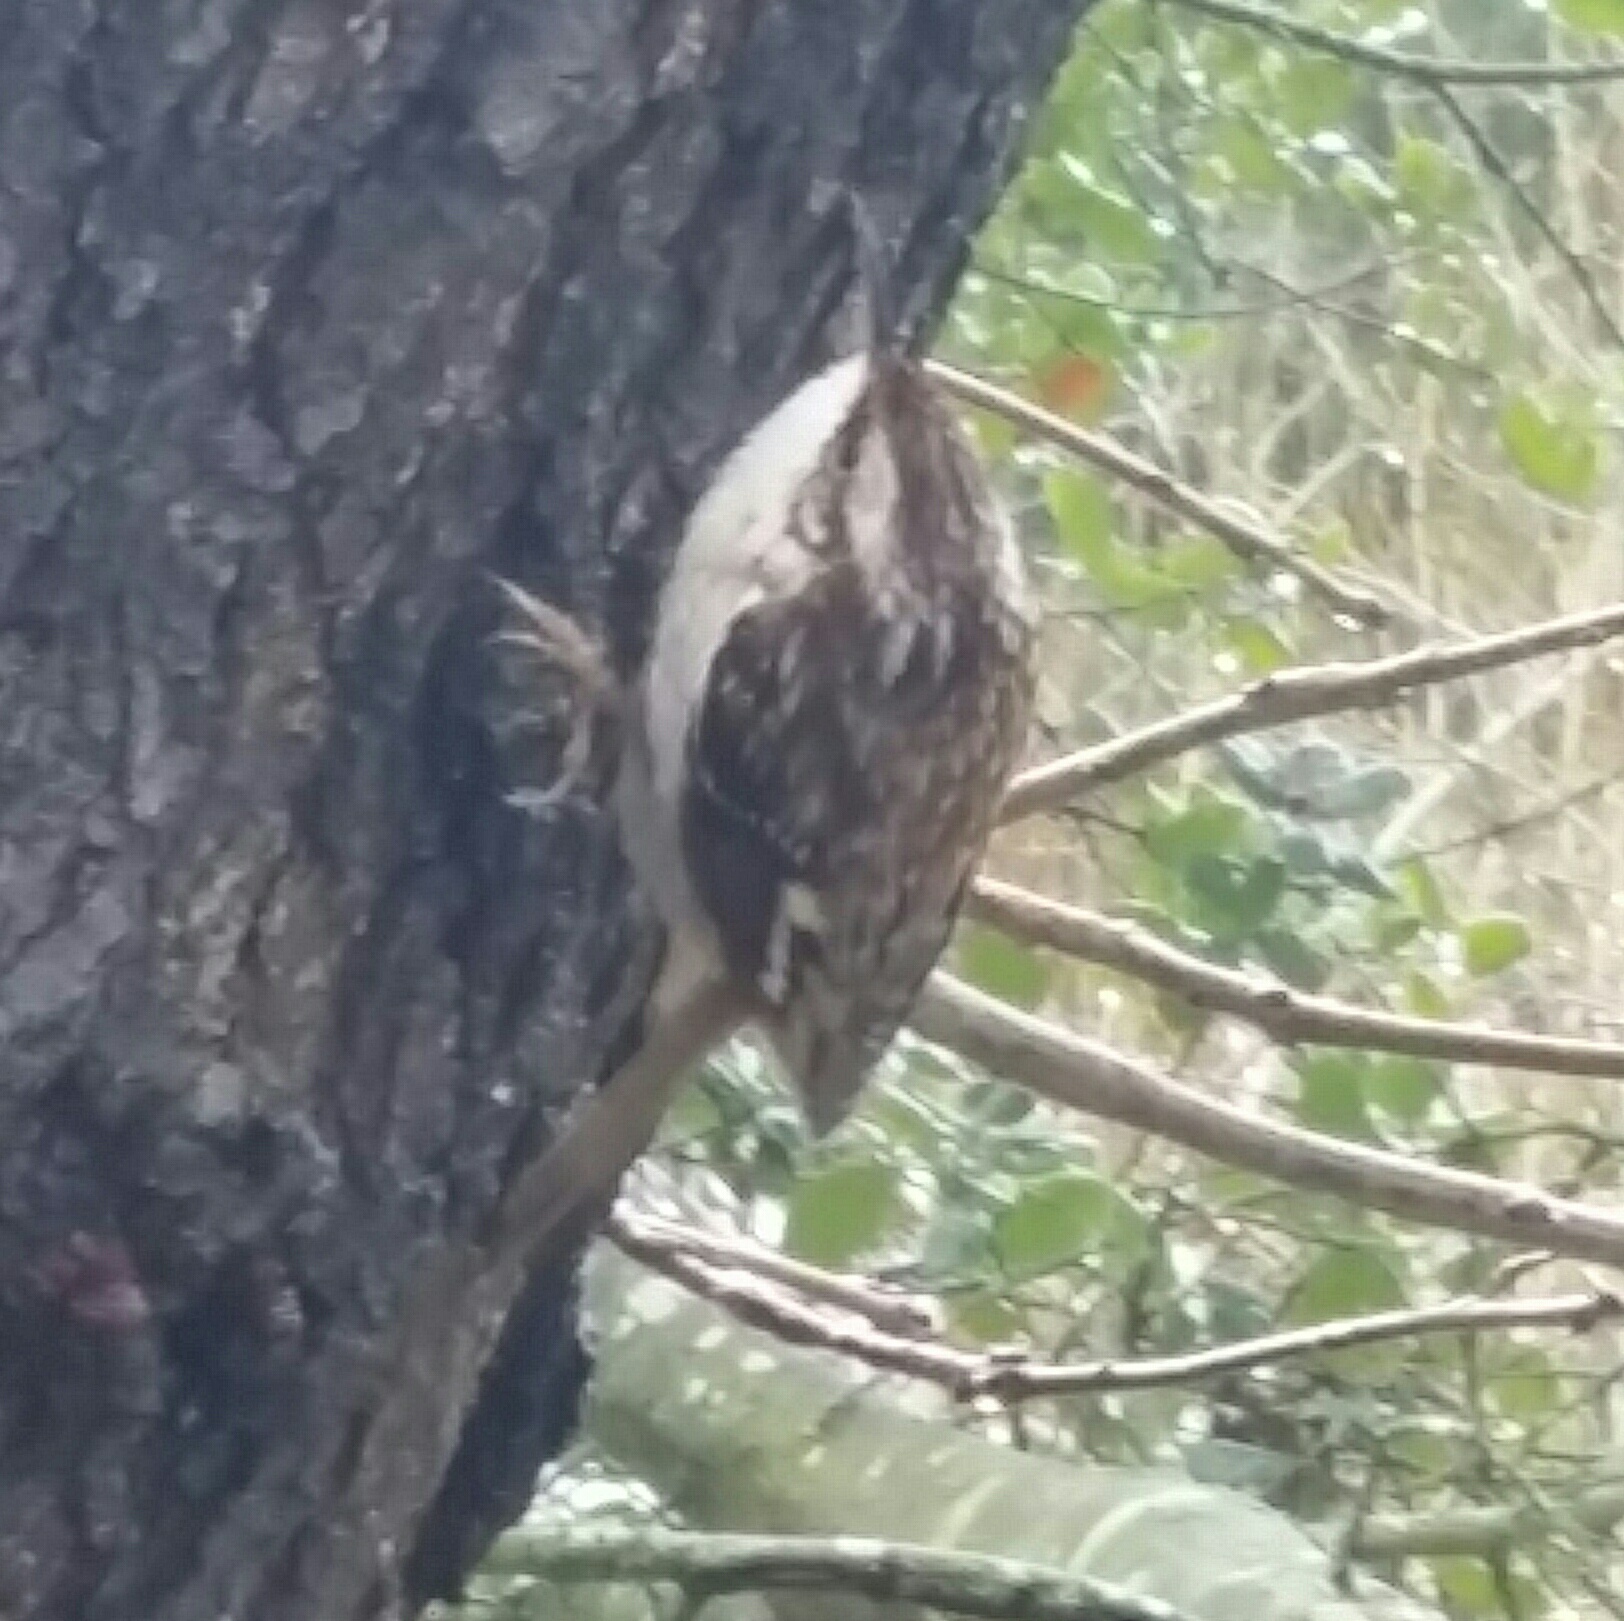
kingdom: Animalia
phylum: Chordata
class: Aves
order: Passeriformes
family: Certhiidae
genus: Certhia
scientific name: Certhia americana
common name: Brown creeper
